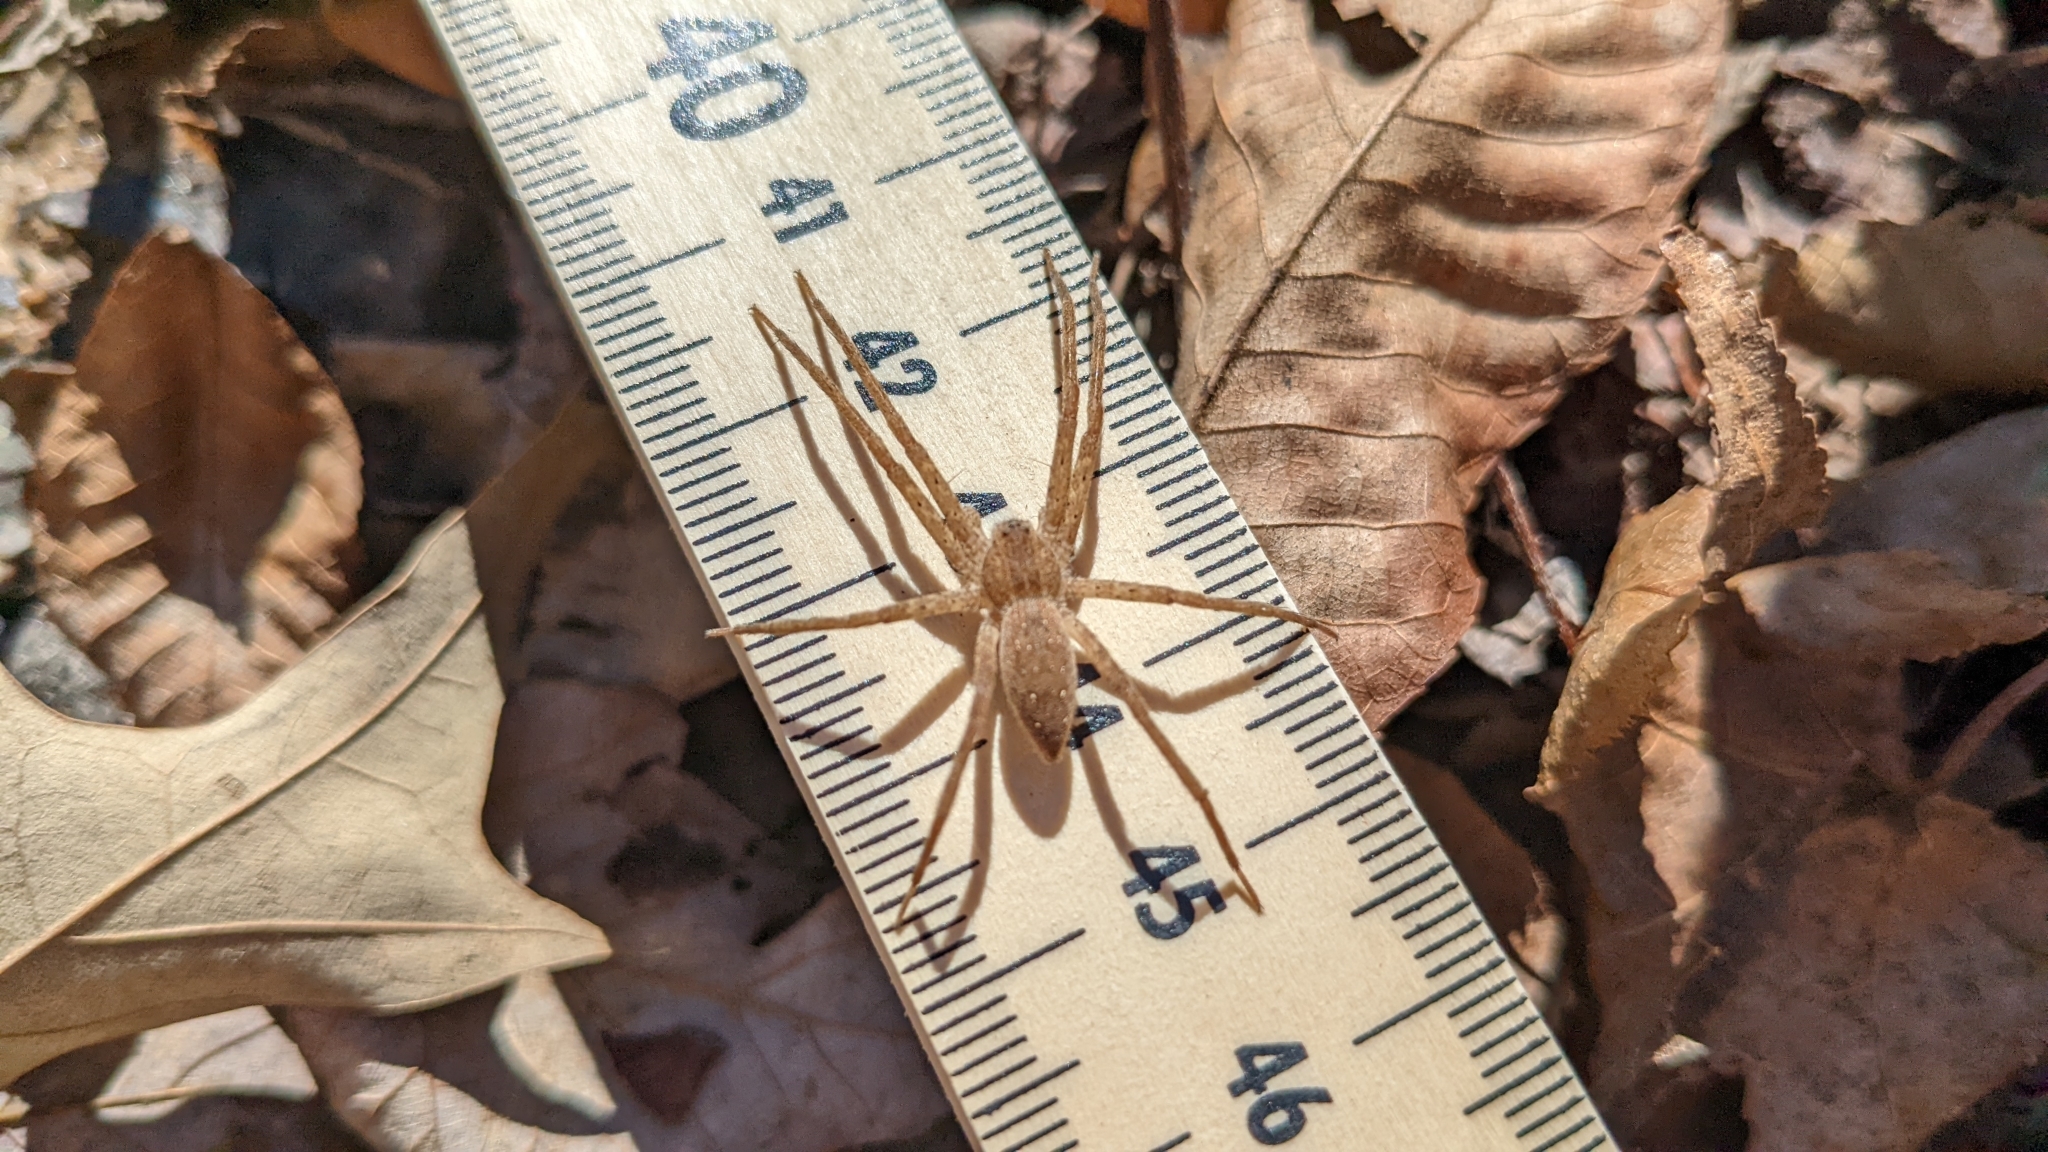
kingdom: Animalia
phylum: Arthropoda
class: Arachnida
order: Araneae
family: Pisauridae
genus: Pisaurina
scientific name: Pisaurina mira
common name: American nursery web spider
